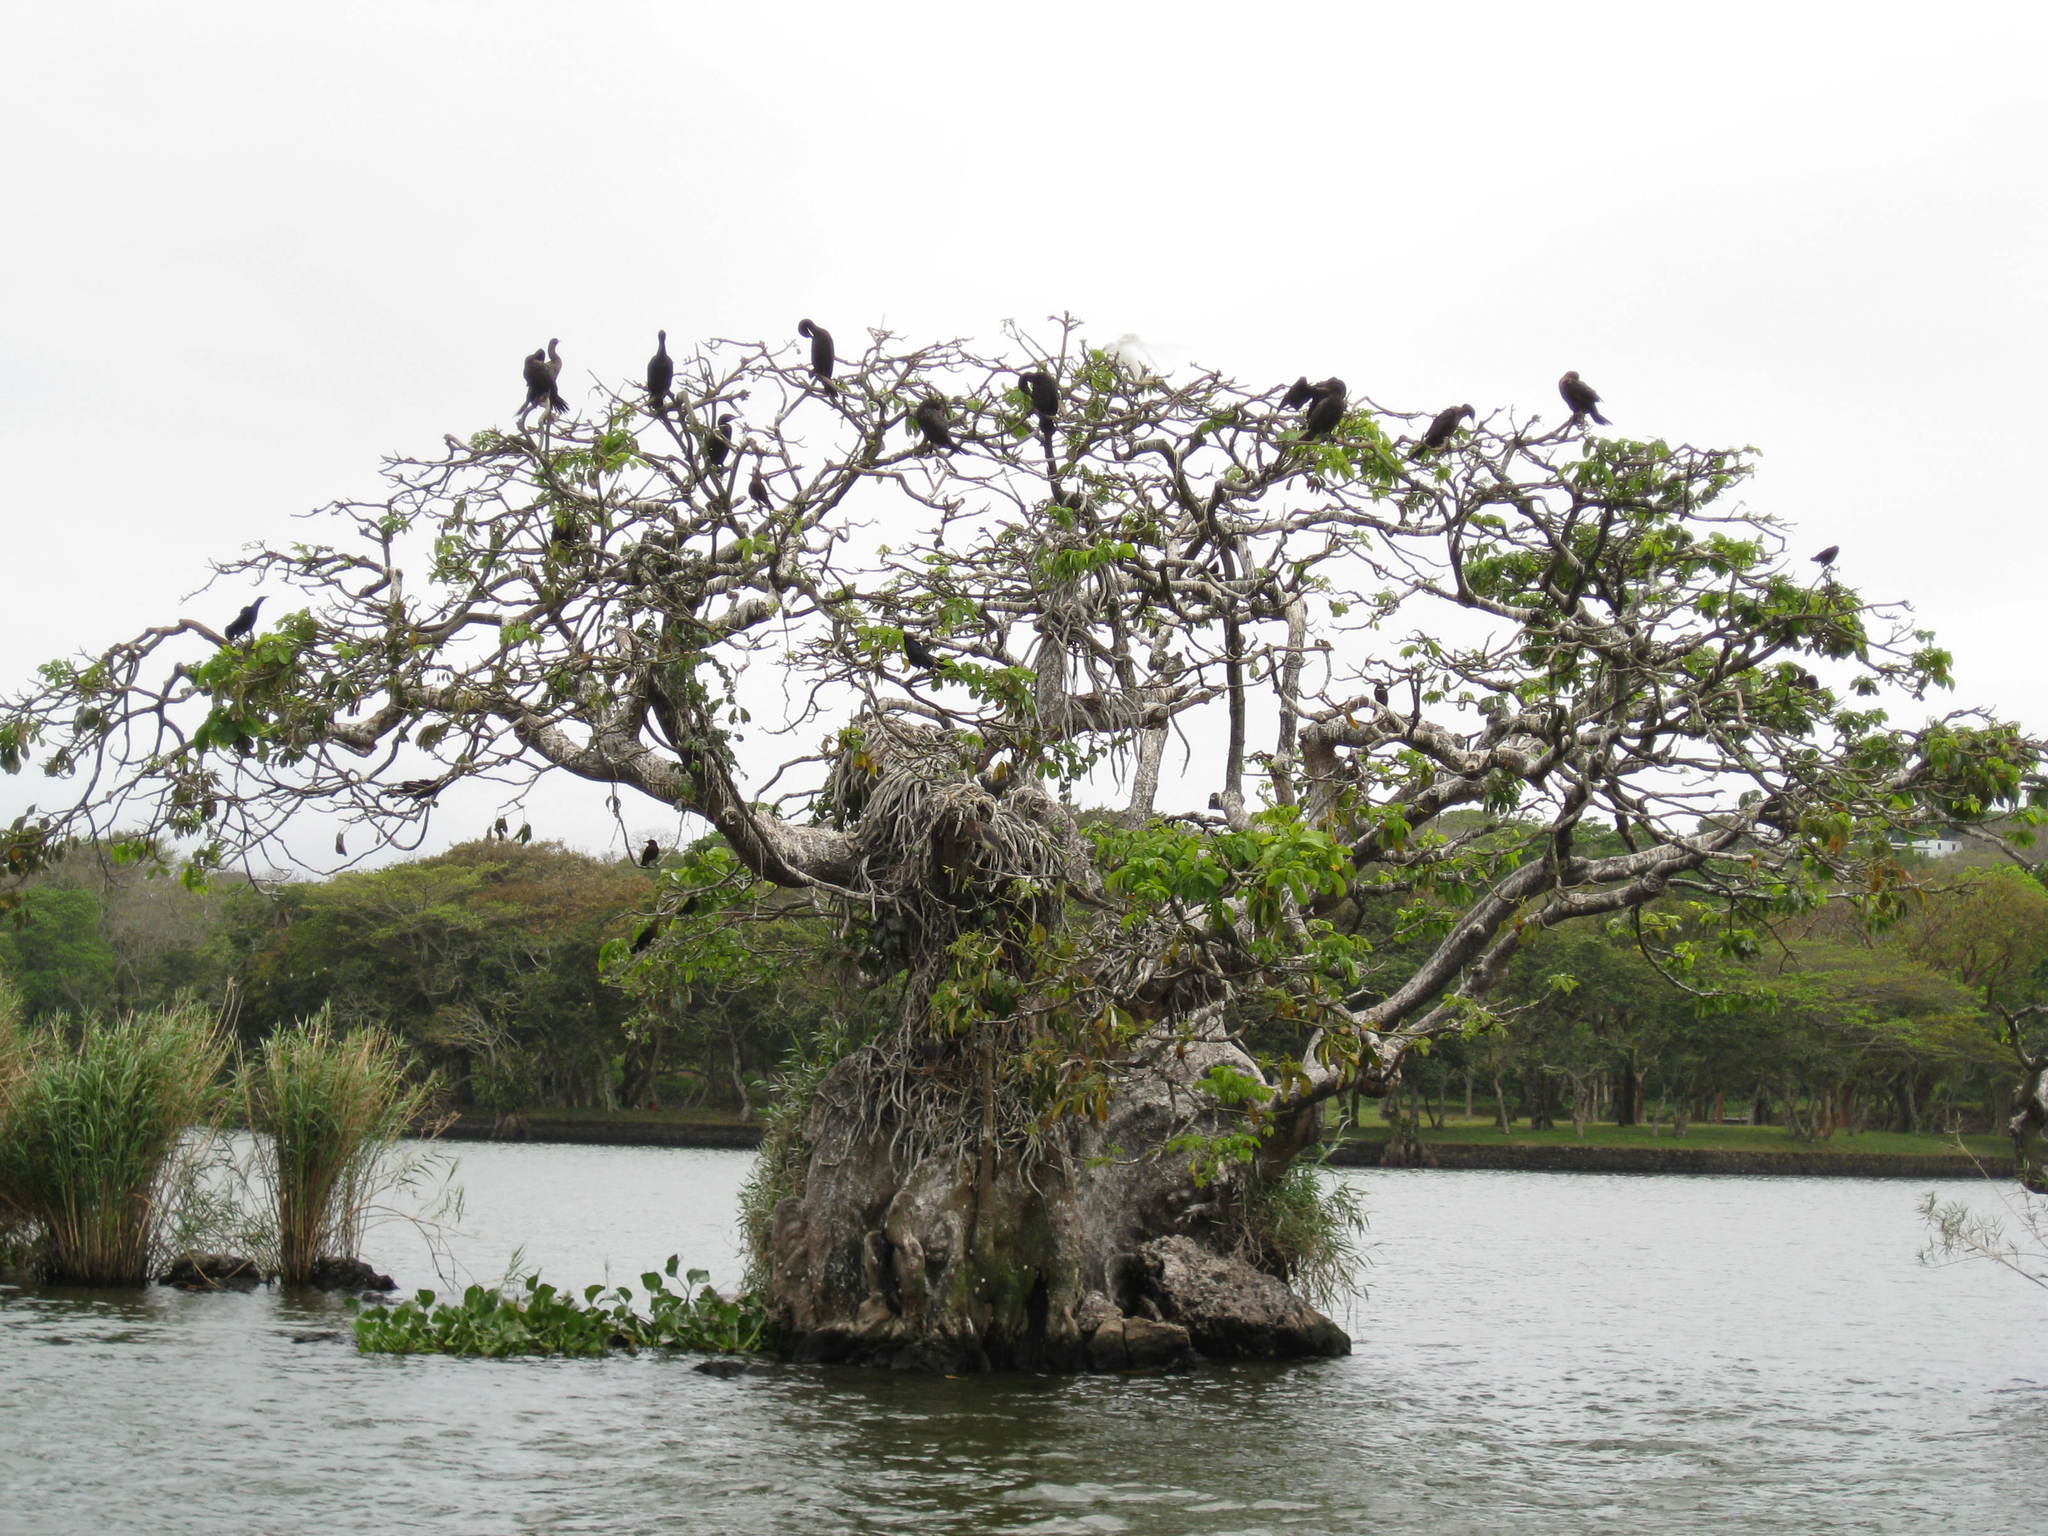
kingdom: Plantae
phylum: Tracheophyta
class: Magnoliopsida
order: Malvales
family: Malvaceae
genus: Pachira
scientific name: Pachira aquatica
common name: Provision-tree
